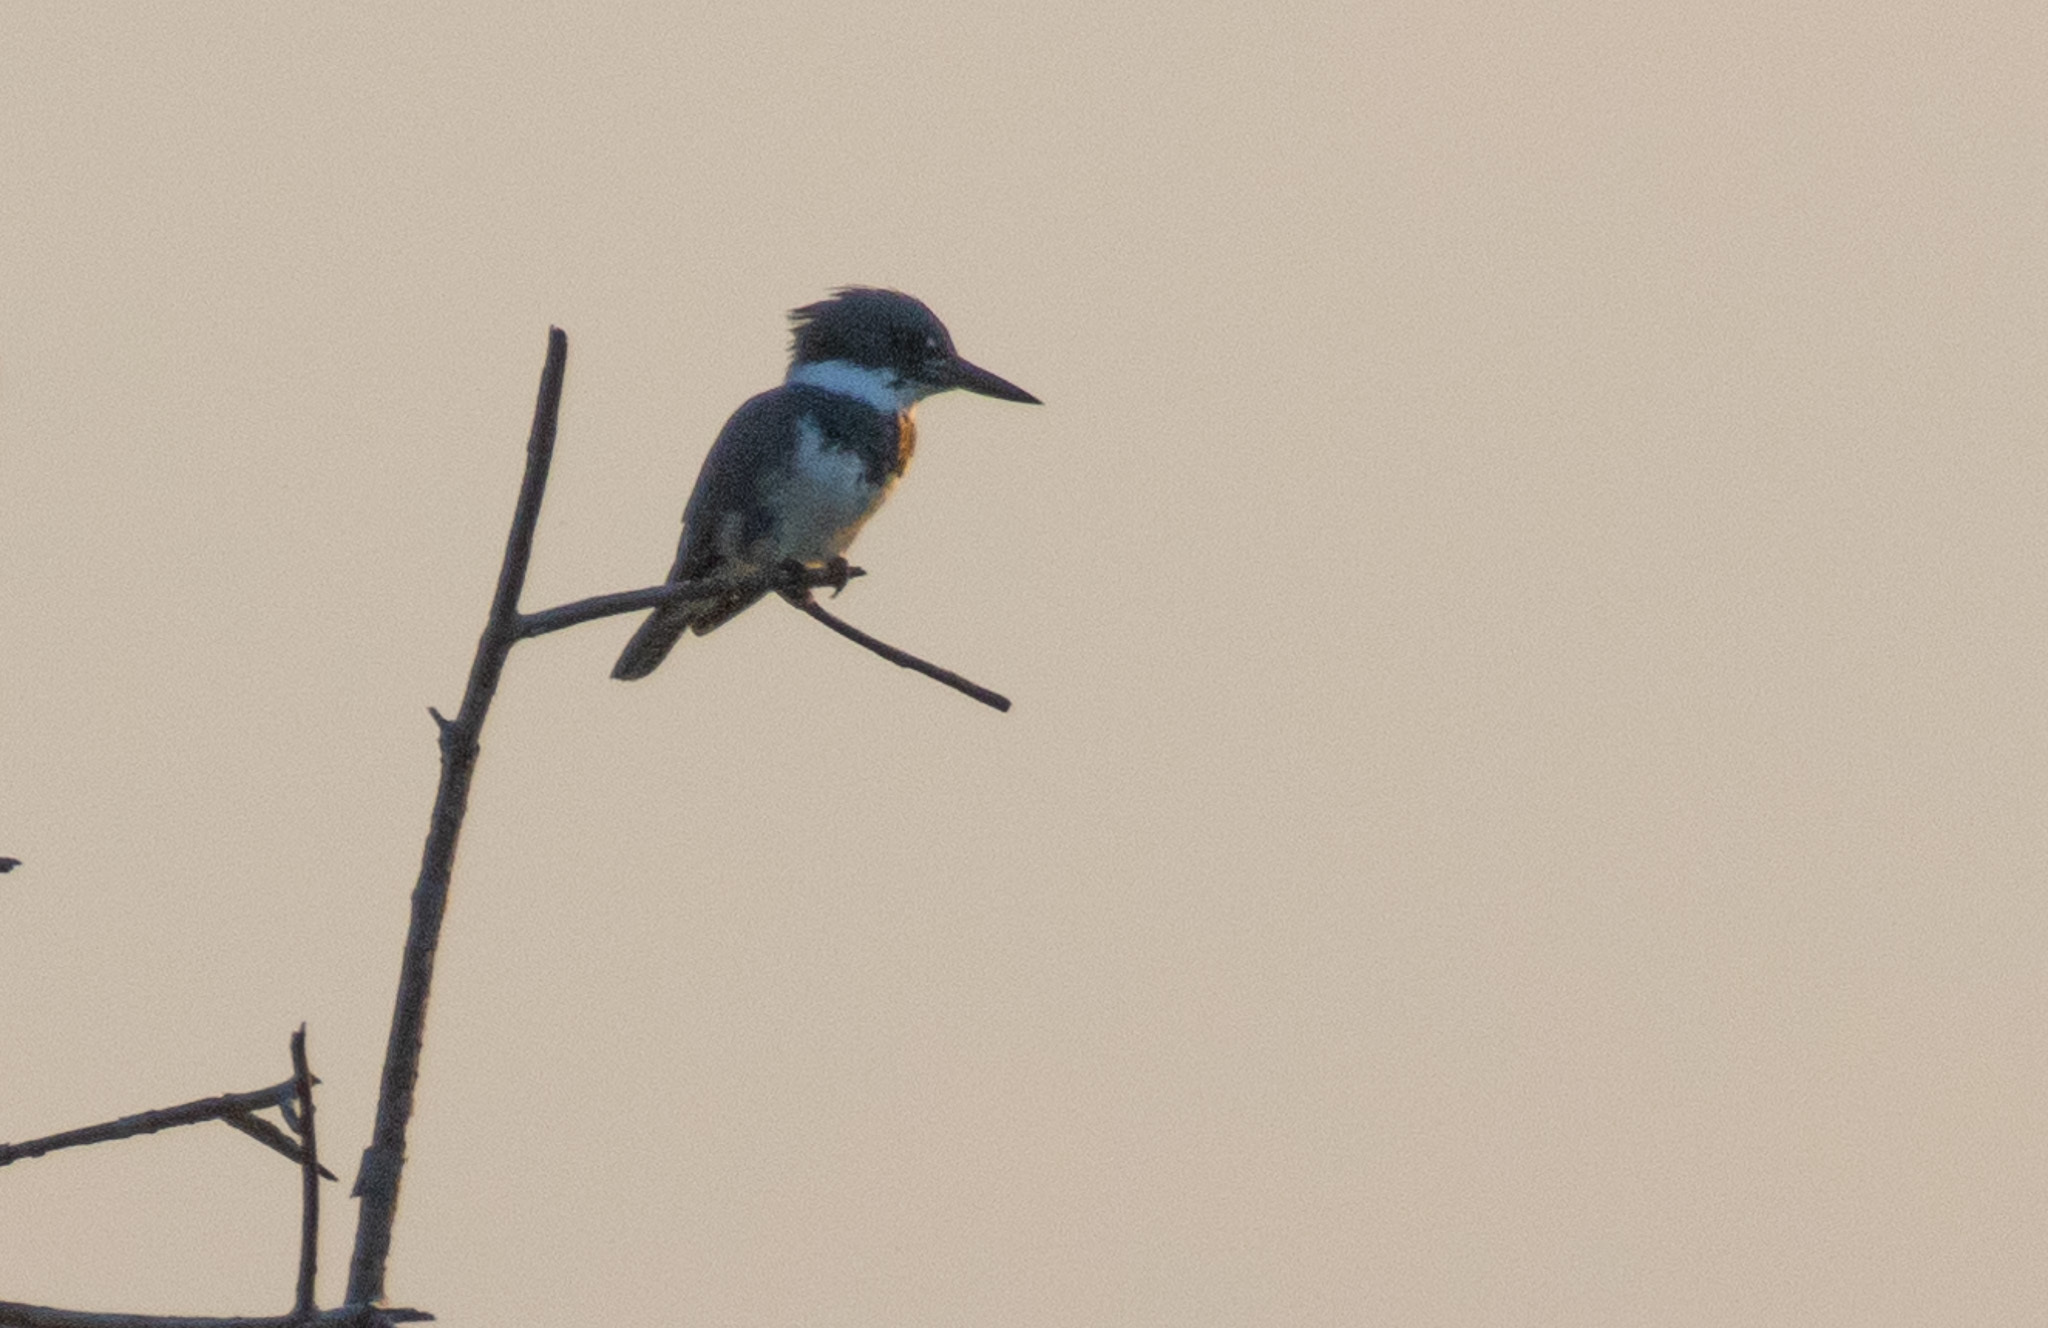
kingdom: Animalia
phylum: Chordata
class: Aves
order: Coraciiformes
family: Alcedinidae
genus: Megaceryle
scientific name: Megaceryle alcyon
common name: Belted kingfisher
